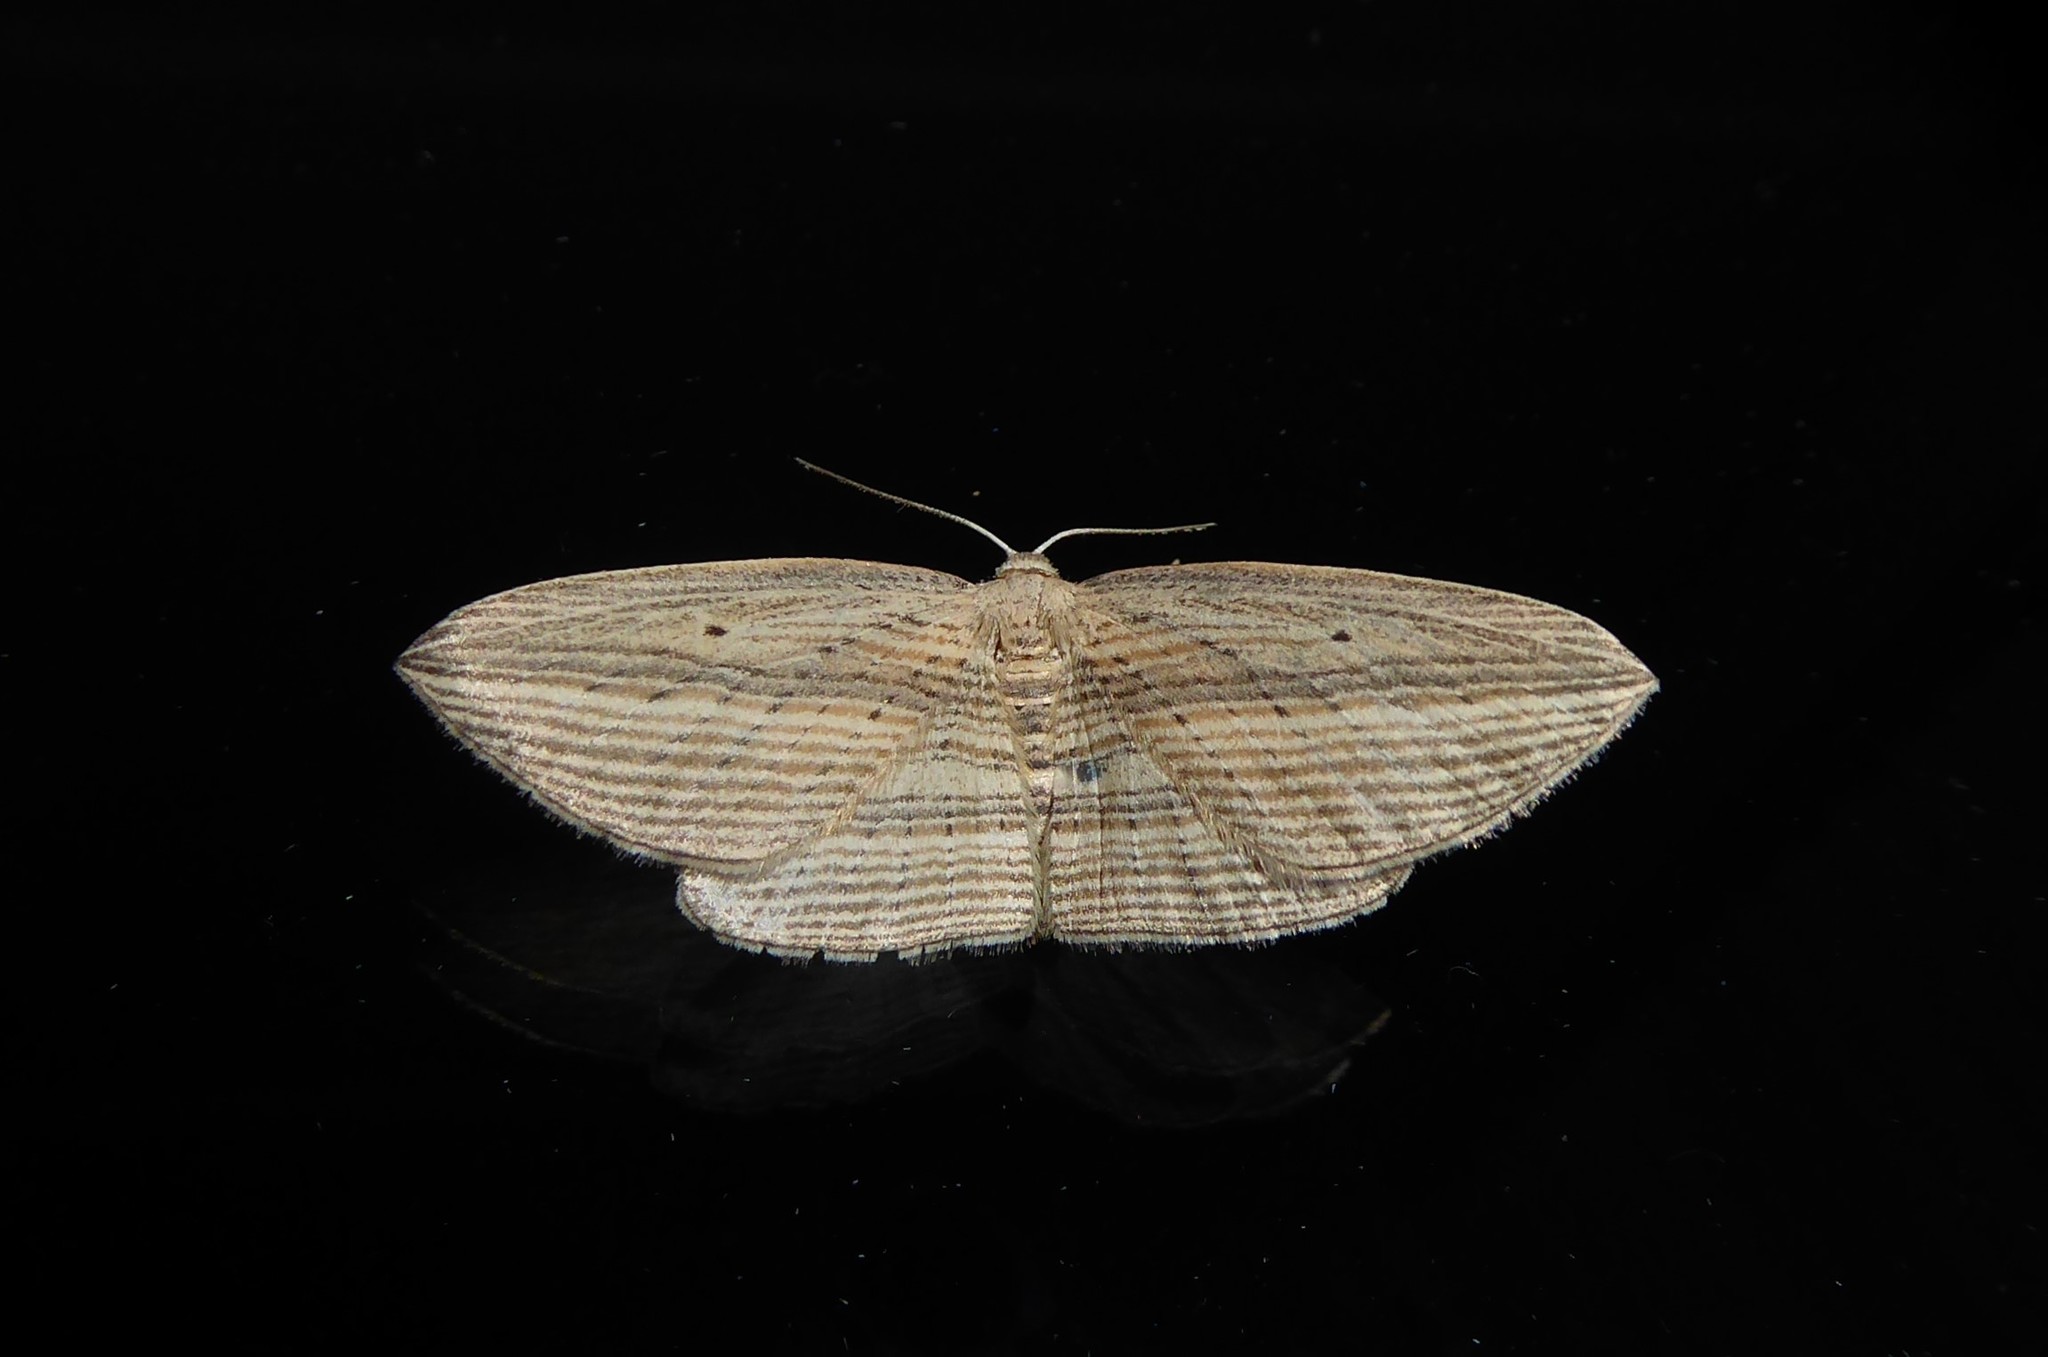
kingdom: Animalia
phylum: Arthropoda
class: Insecta
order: Lepidoptera
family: Geometridae
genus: Epiphryne
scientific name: Epiphryne verriculata
